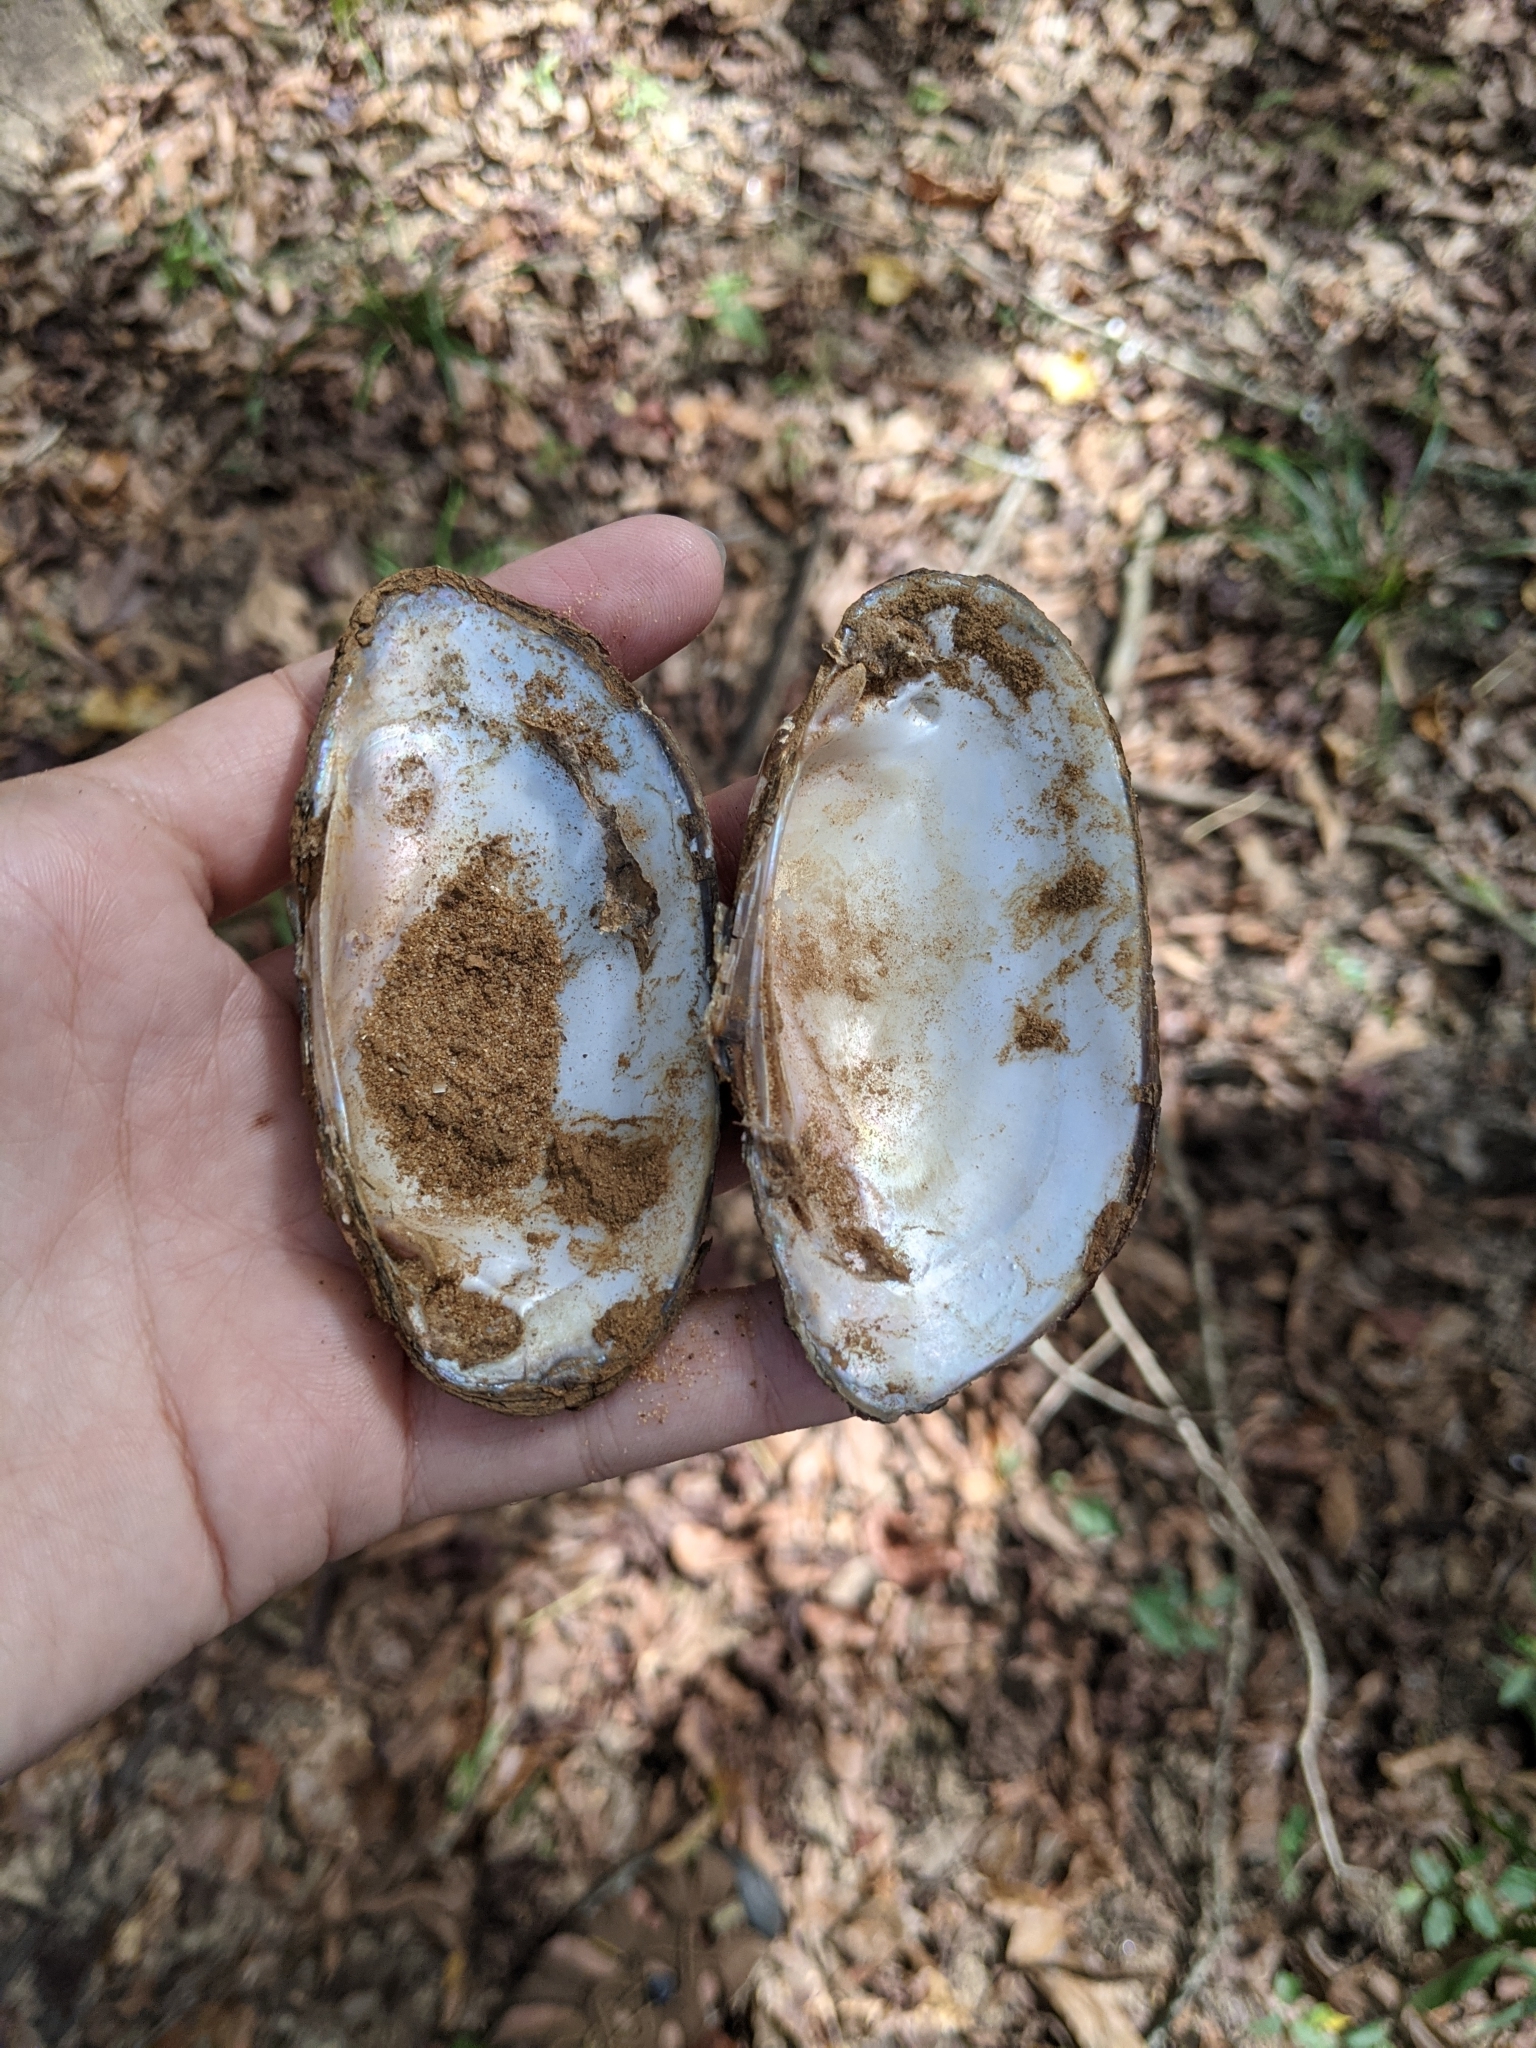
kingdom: Animalia
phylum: Mollusca
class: Bivalvia
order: Unionida
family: Unionidae
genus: Lampsilis
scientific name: Lampsilis teres
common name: Yellow sandshell
